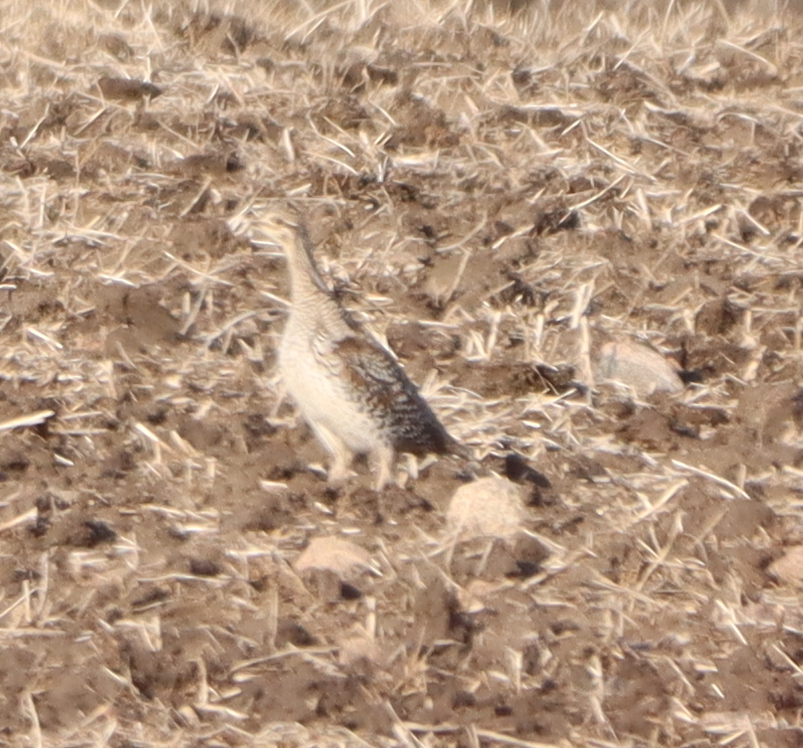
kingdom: Animalia
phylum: Chordata
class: Aves
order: Galliformes
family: Phasianidae
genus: Tympanuchus
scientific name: Tympanuchus phasianellus
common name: Sharp-tailed grouse
